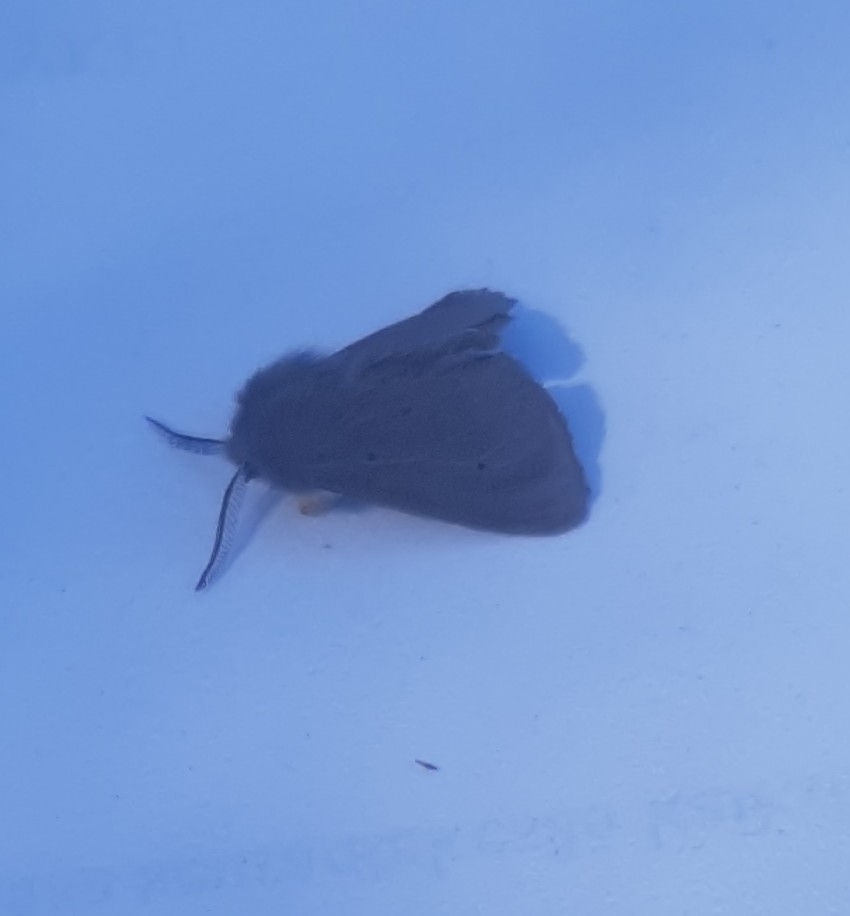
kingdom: Animalia
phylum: Arthropoda
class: Insecta
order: Lepidoptera
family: Erebidae
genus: Diaphora
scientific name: Diaphora mendica
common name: Muslin moth
